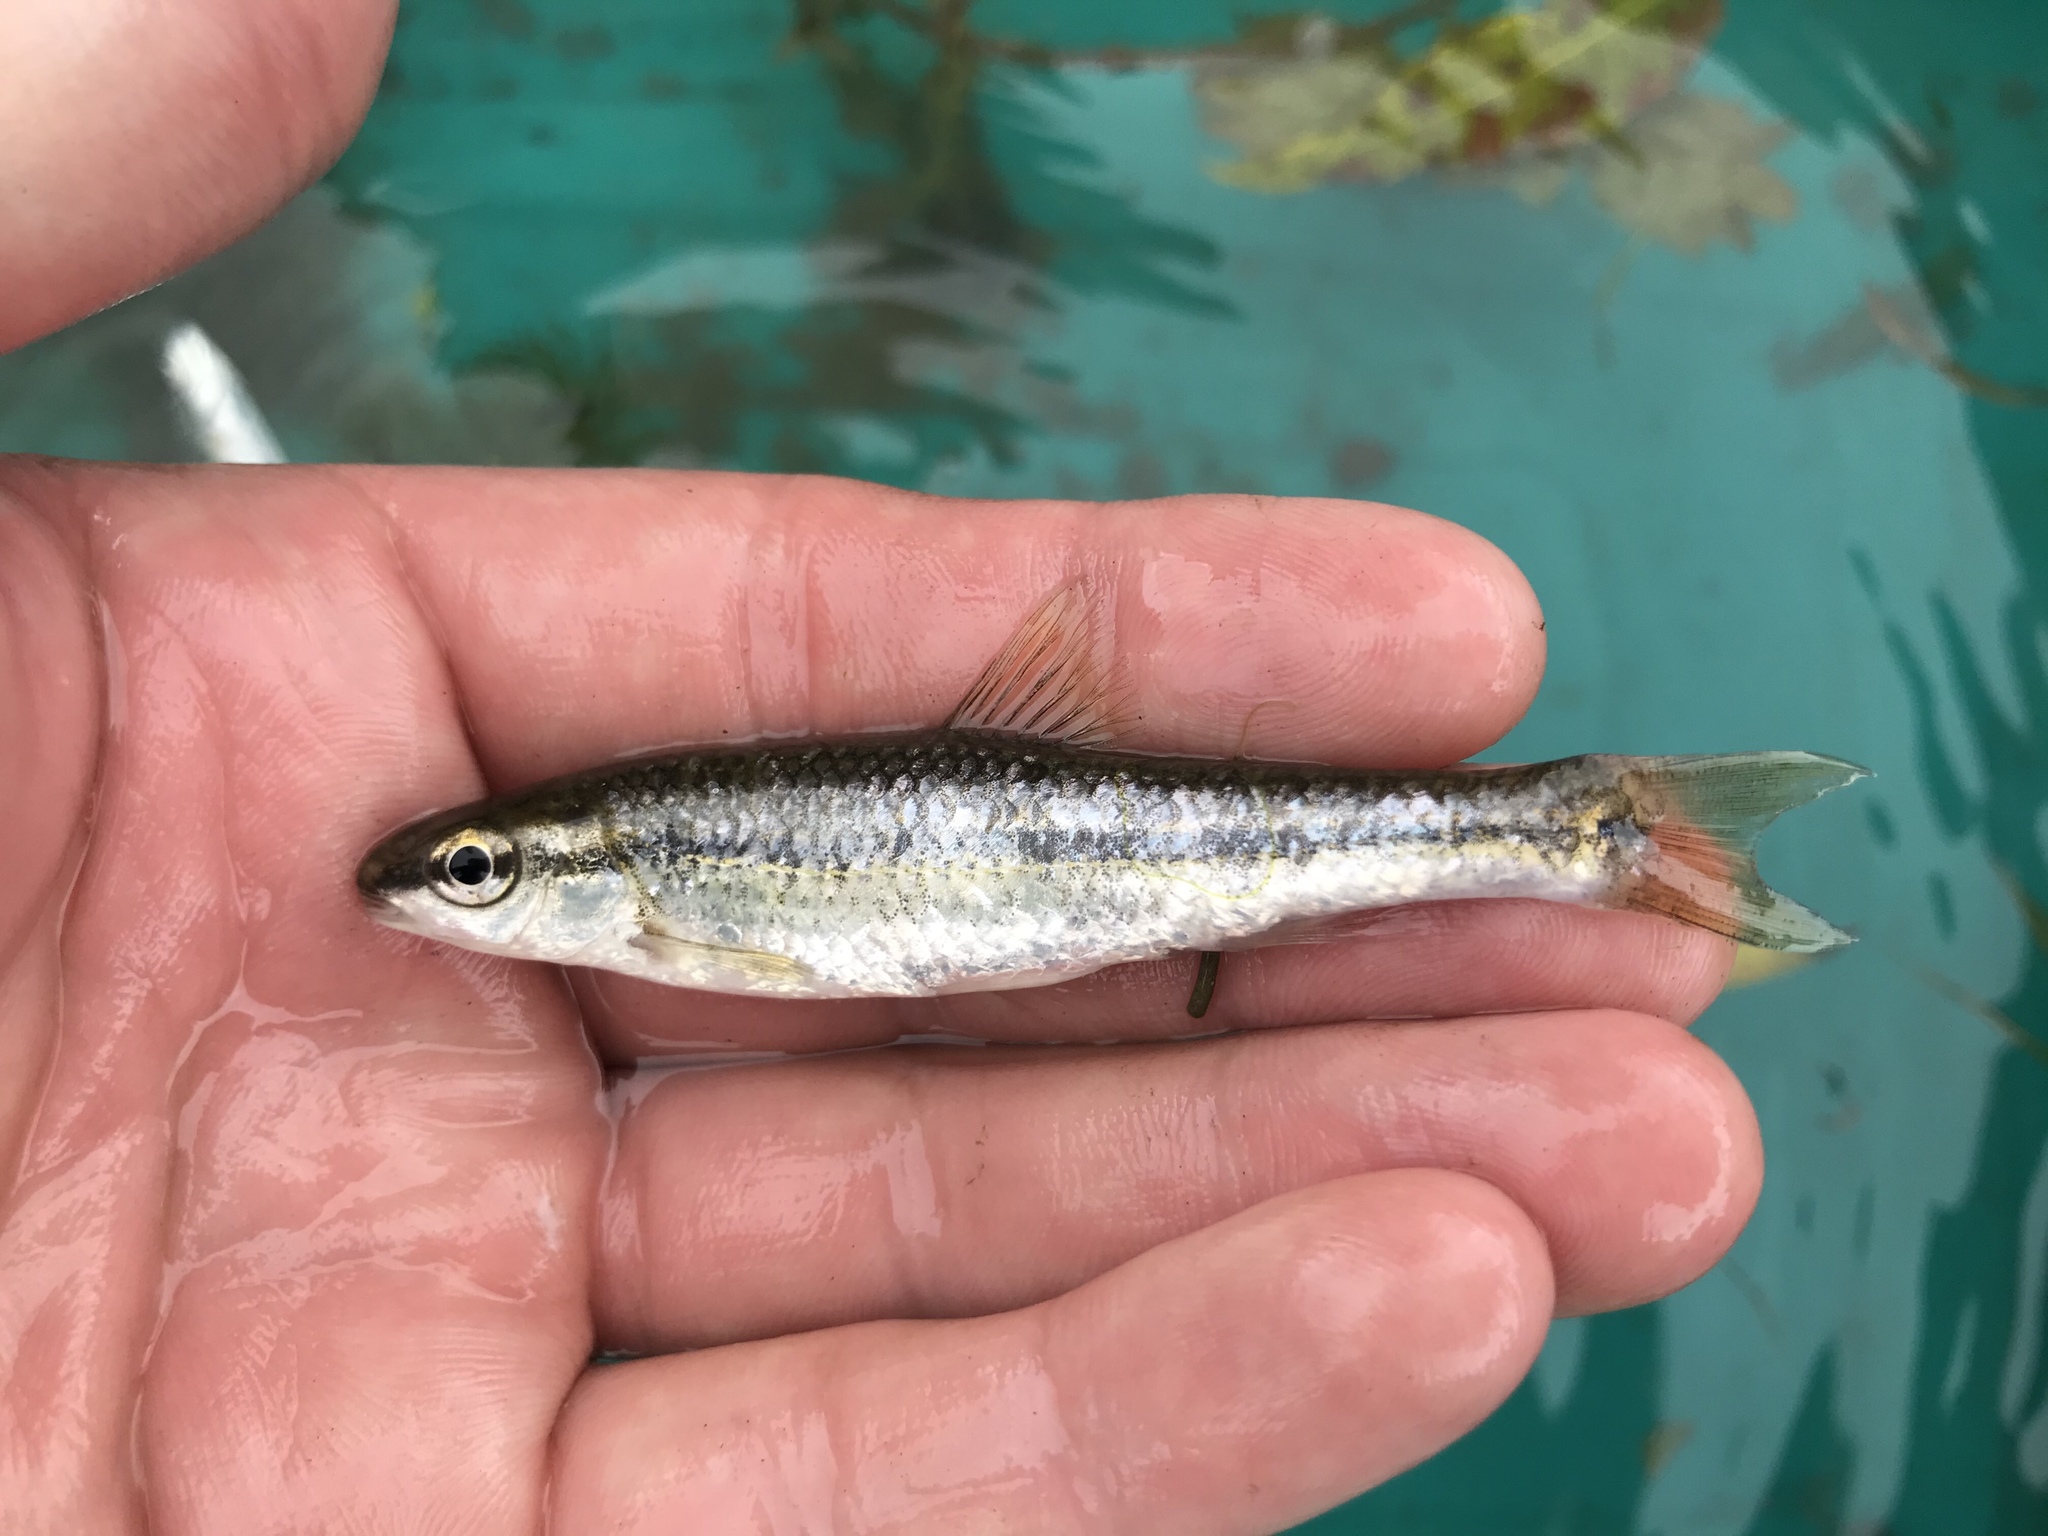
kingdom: Animalia
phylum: Chordata
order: Cypriniformes
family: Cyprinidae
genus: Dionda
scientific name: Dionda flavipinnis
